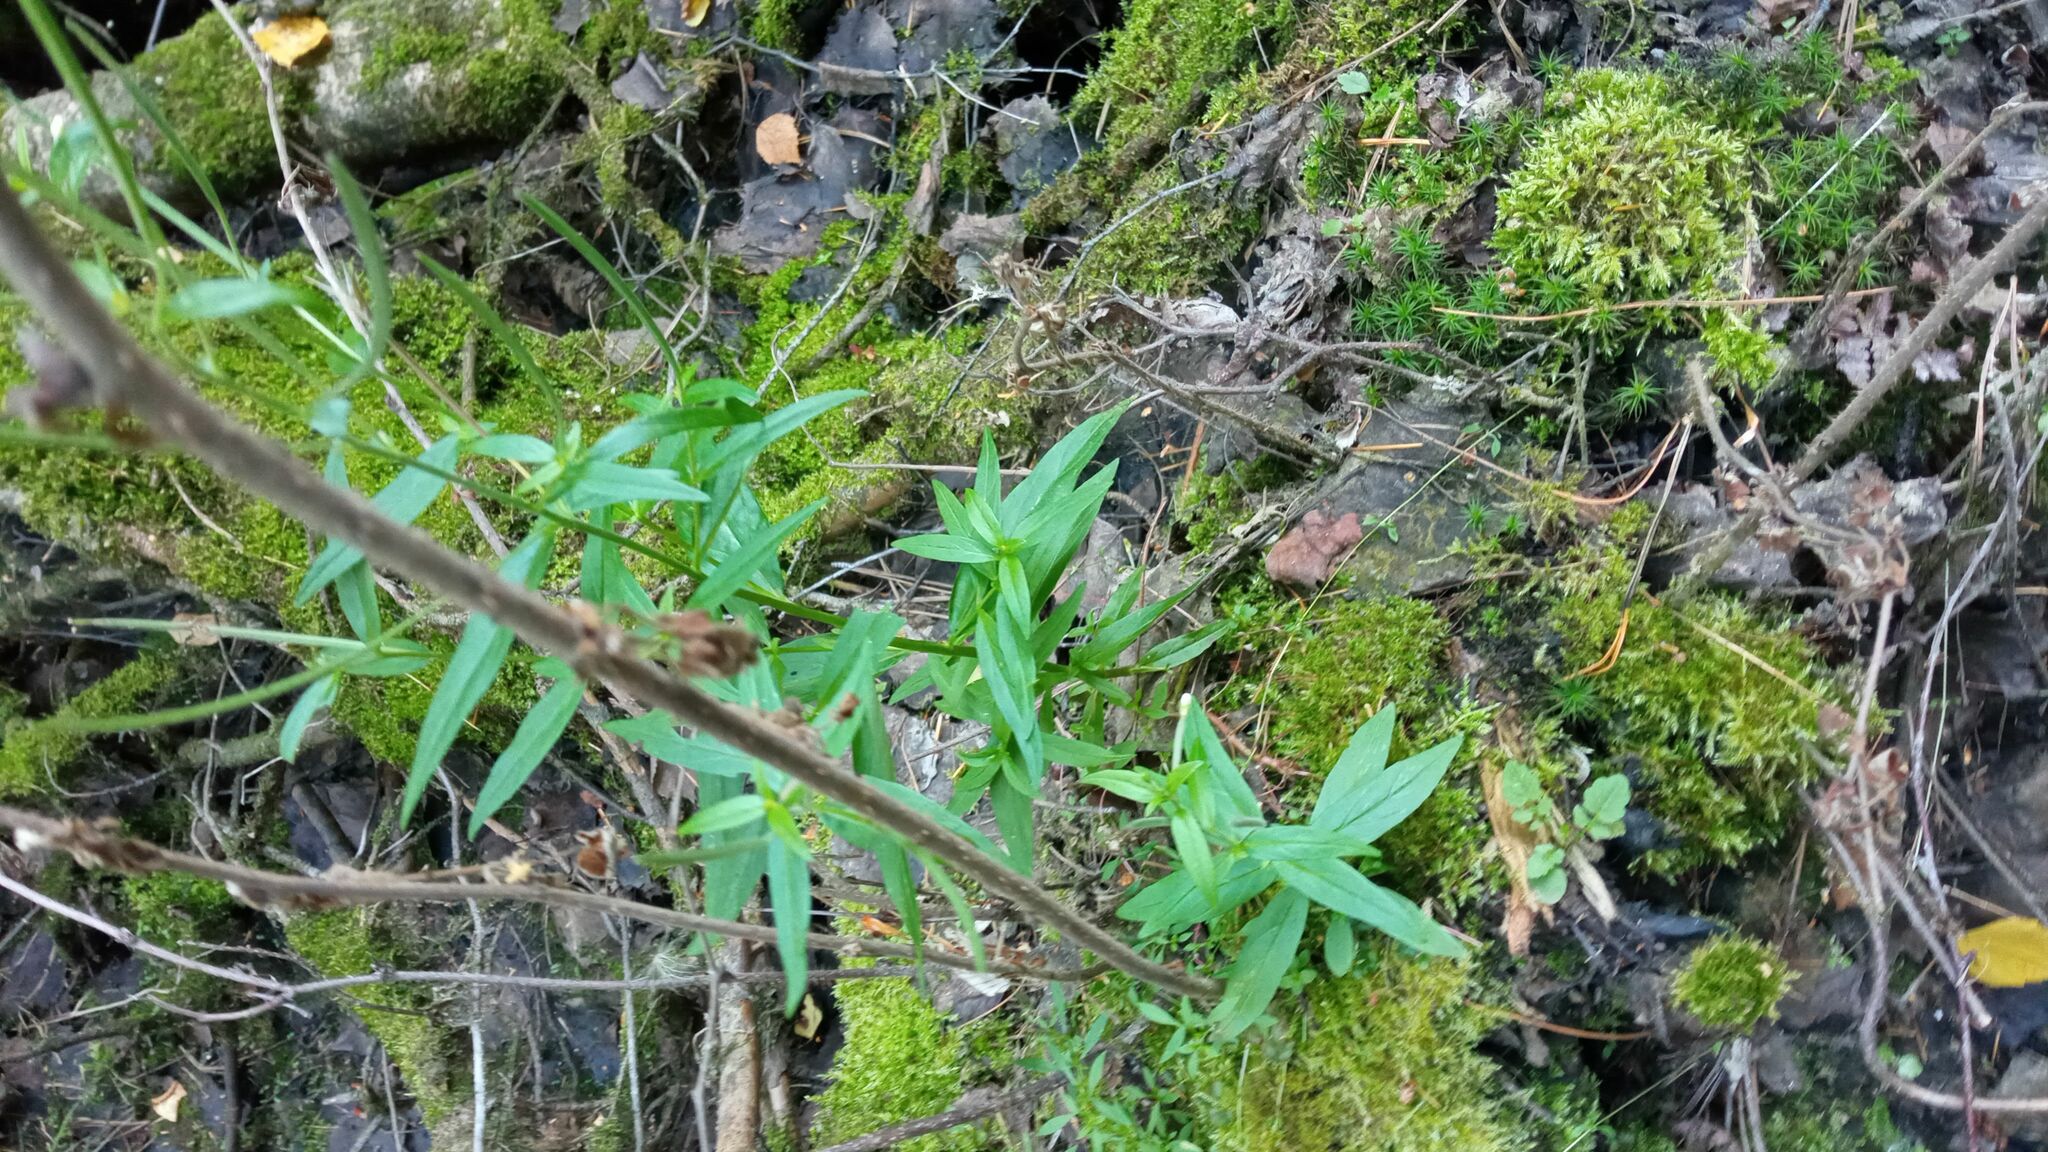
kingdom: Plantae
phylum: Tracheophyta
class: Magnoliopsida
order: Myrtales
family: Onagraceae
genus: Epilobium
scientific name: Epilobium palustre
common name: Marsh willowherb
